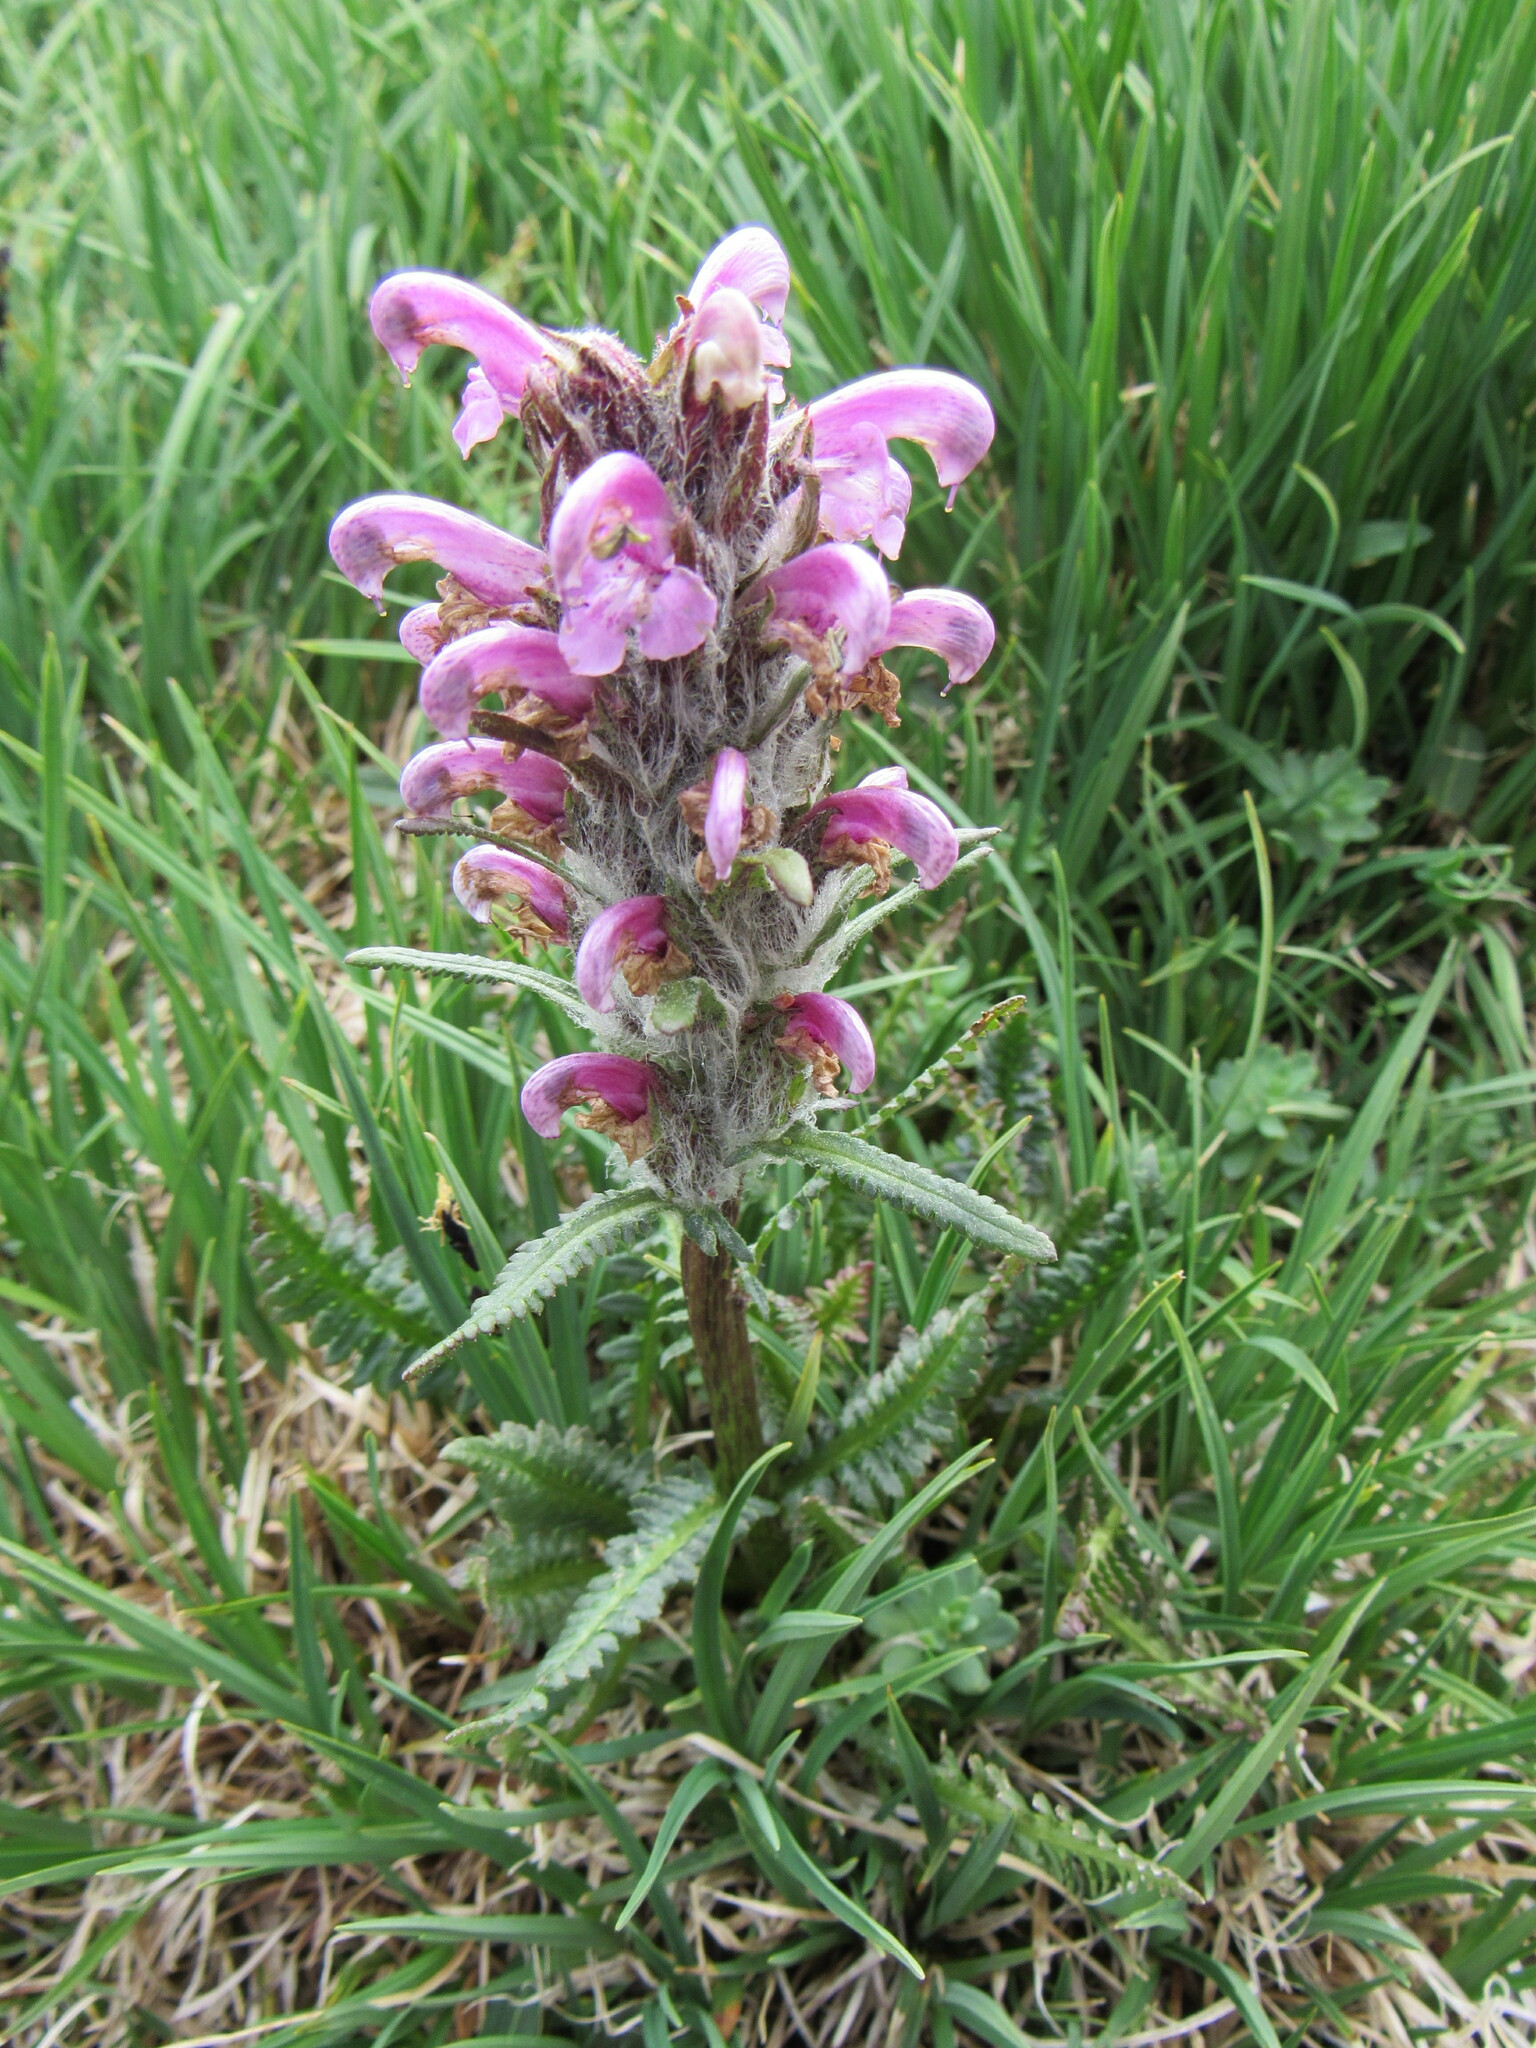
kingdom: Plantae
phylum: Tracheophyta
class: Magnoliopsida
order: Lamiales
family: Orobanchaceae
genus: Pedicularis
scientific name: Pedicularis scopulorum
